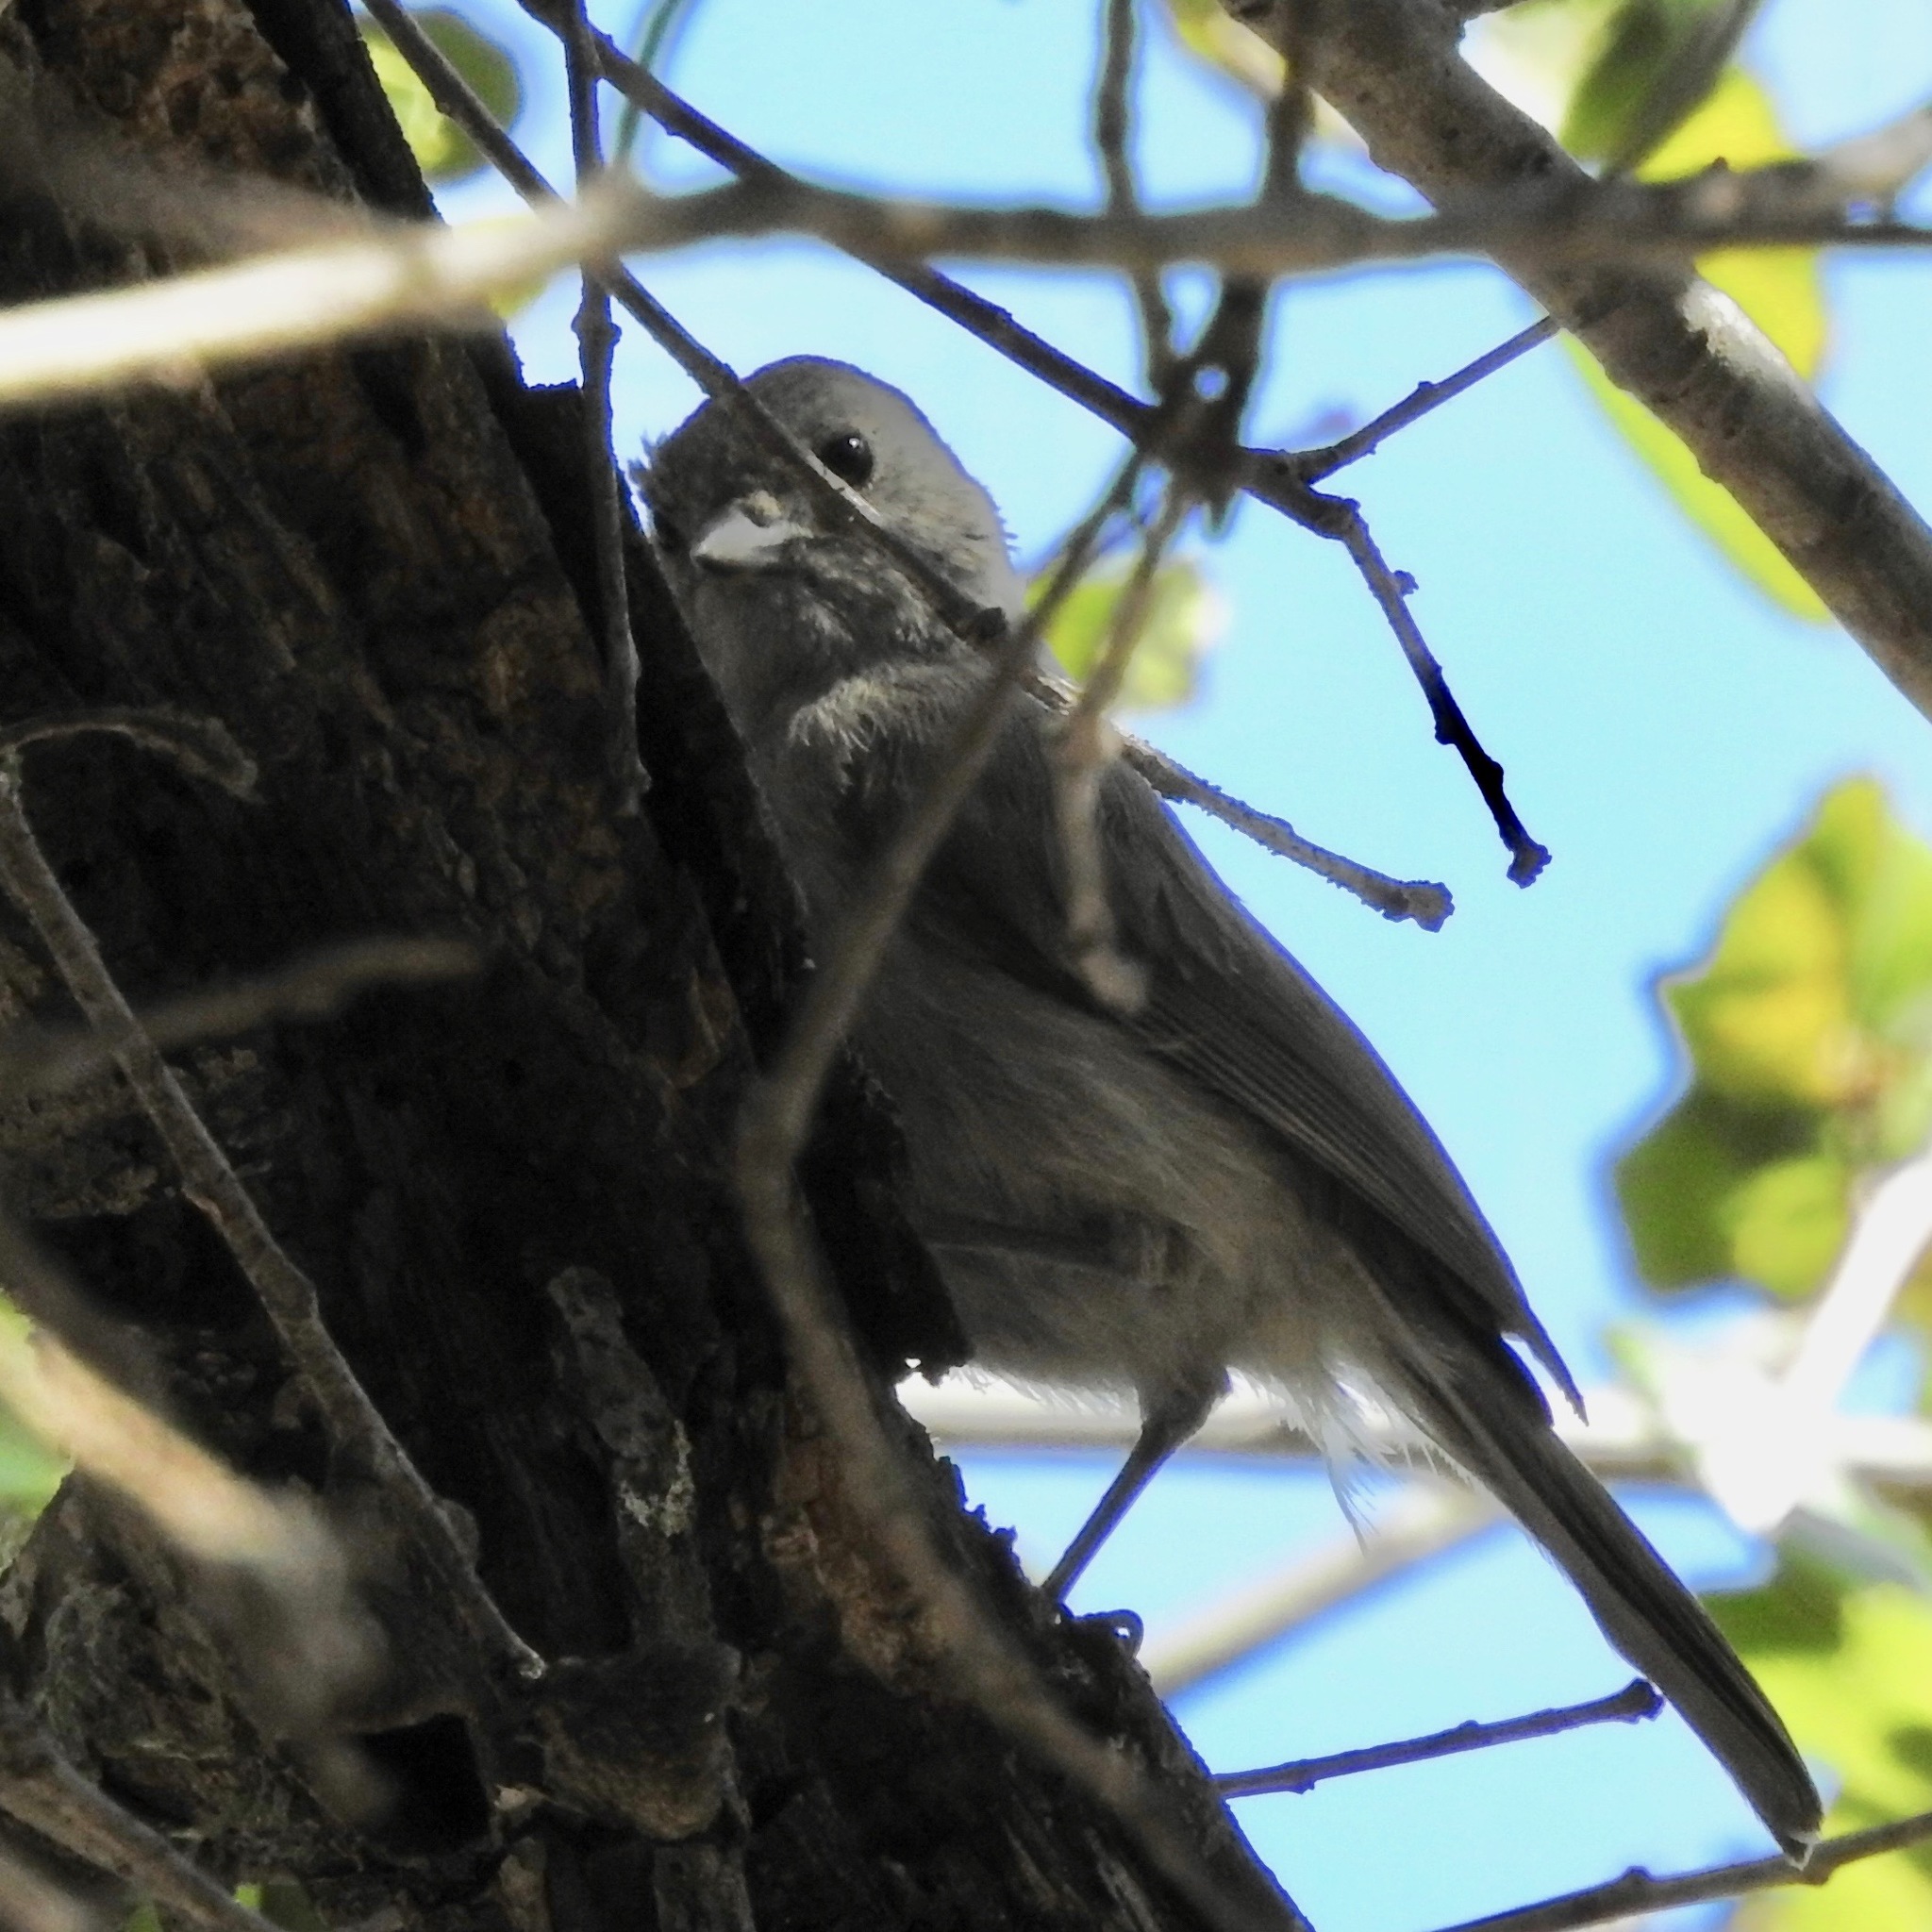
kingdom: Animalia
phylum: Chordata
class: Aves
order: Passeriformes
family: Paridae
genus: Baeolophus
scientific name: Baeolophus inornatus
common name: Oak titmouse
